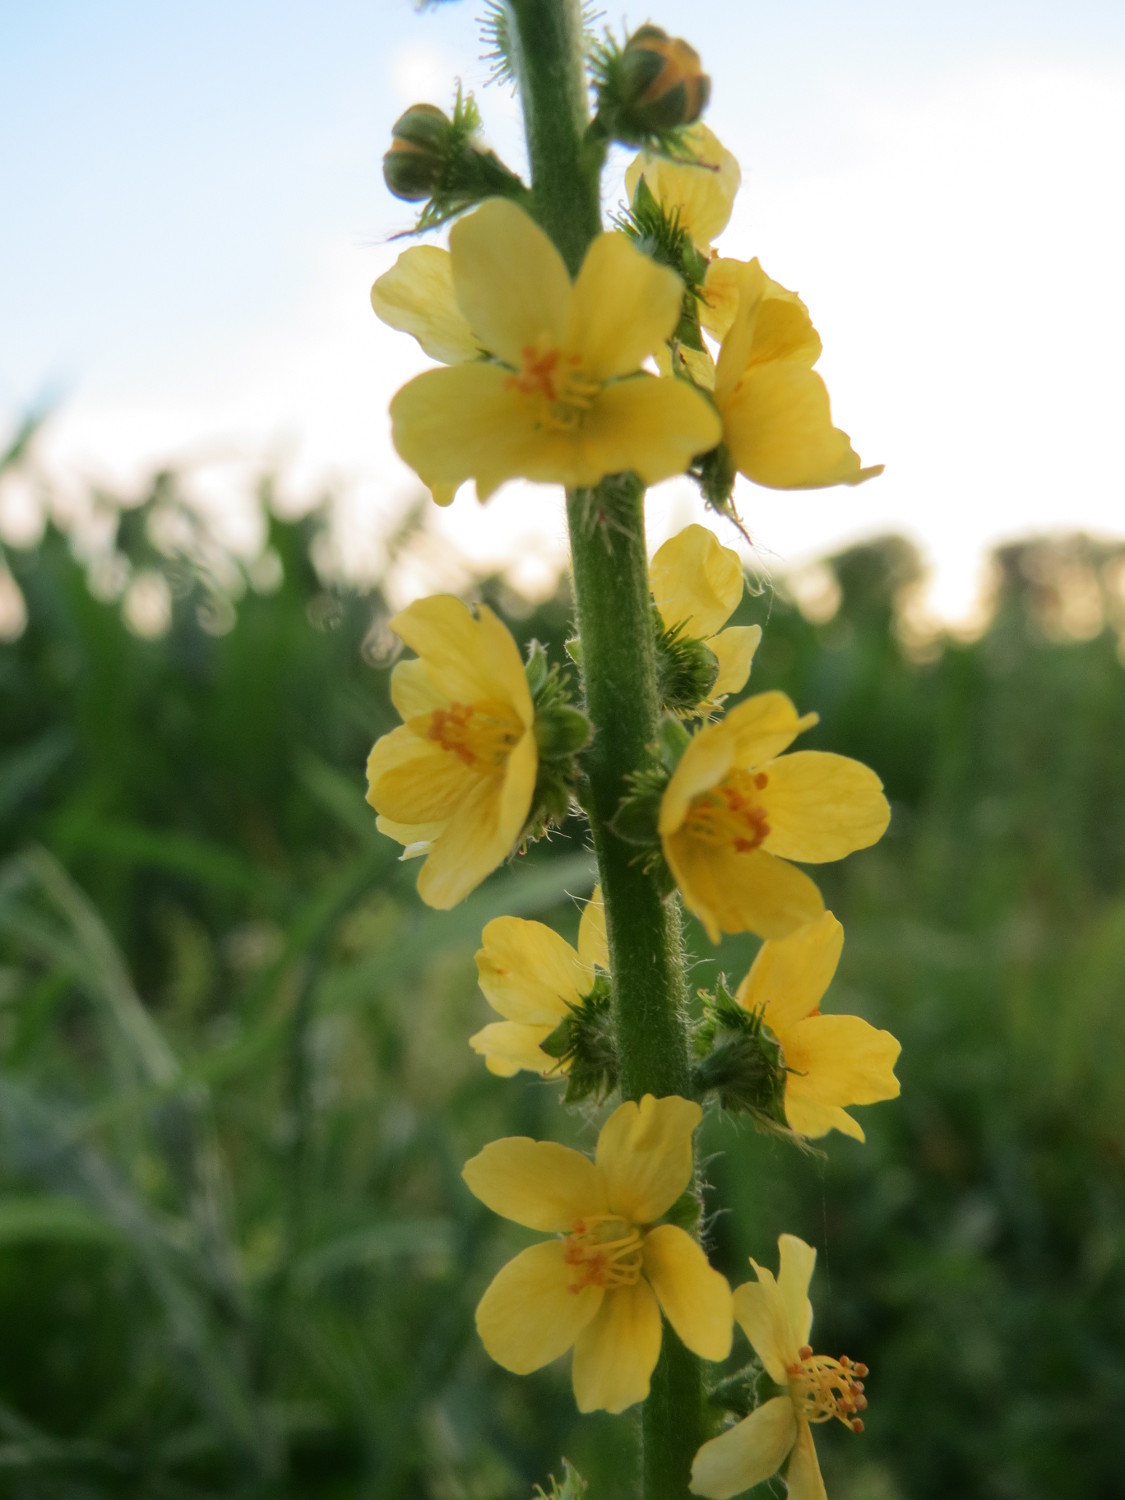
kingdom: Plantae
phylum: Tracheophyta
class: Magnoliopsida
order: Rosales
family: Rosaceae
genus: Agrimonia
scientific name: Agrimonia eupatoria
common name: Agrimony
